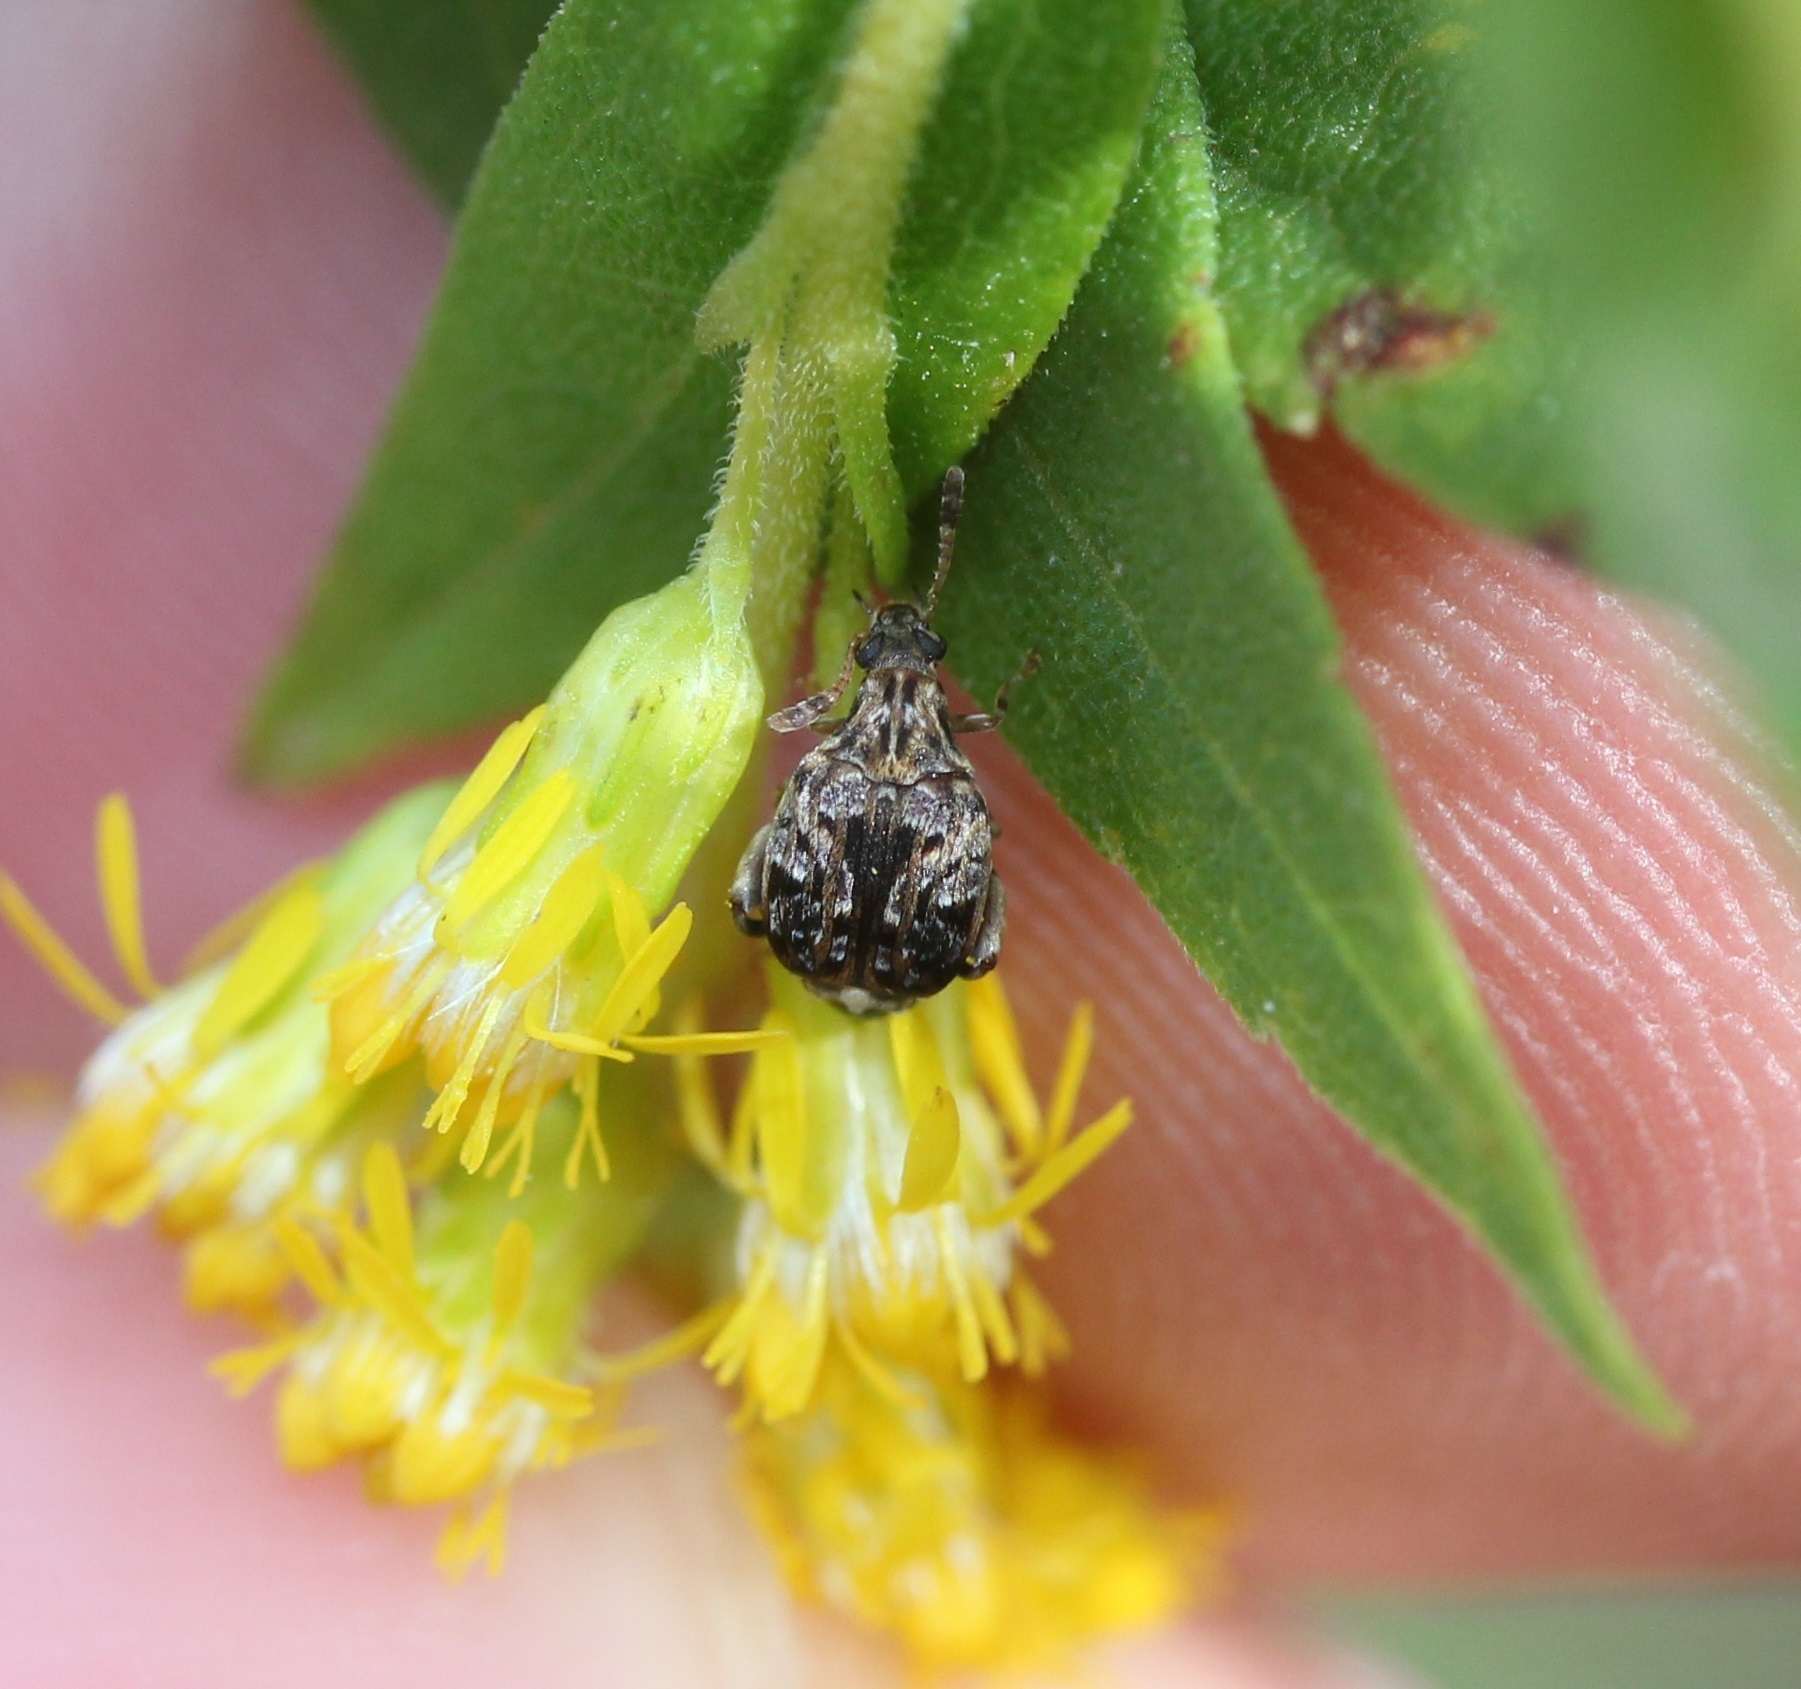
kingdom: Animalia
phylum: Arthropoda
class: Insecta
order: Coleoptera
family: Chrysomelidae
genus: Gibbobruchus
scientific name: Gibbobruchus mimus
